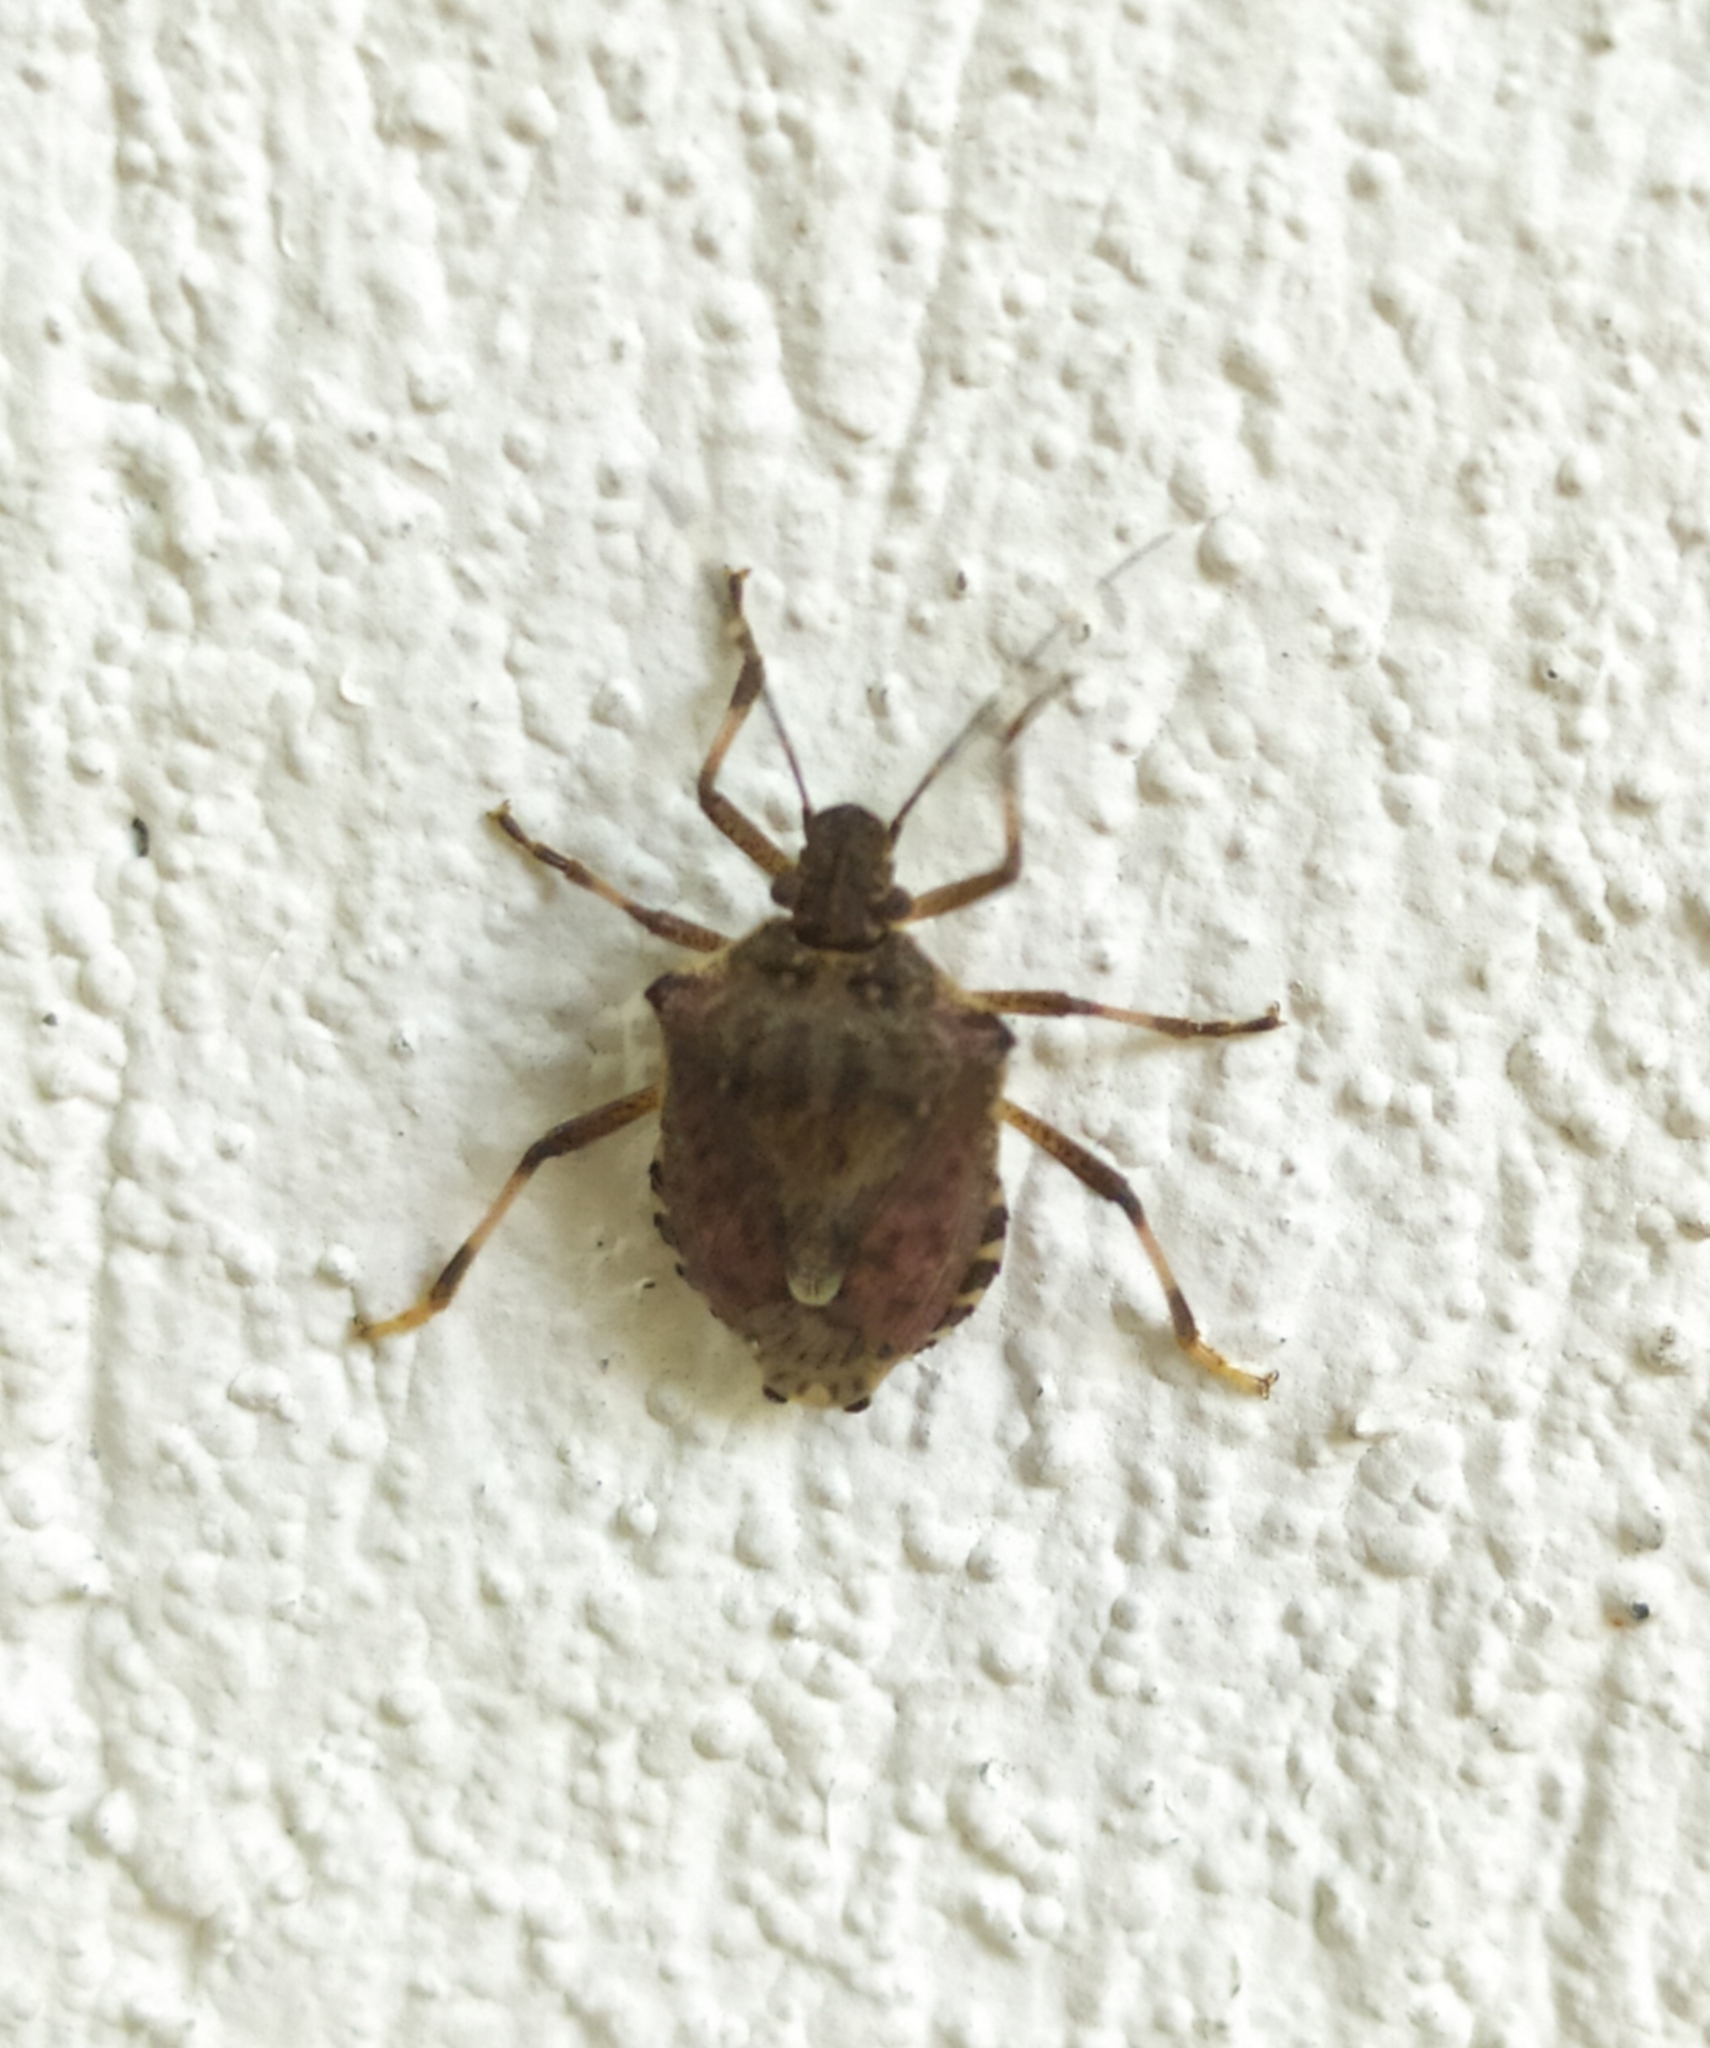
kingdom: Animalia
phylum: Arthropoda
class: Insecta
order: Hemiptera
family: Pentatomidae
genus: Halyomorpha
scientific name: Halyomorpha halys
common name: Brown marmorated stink bug
